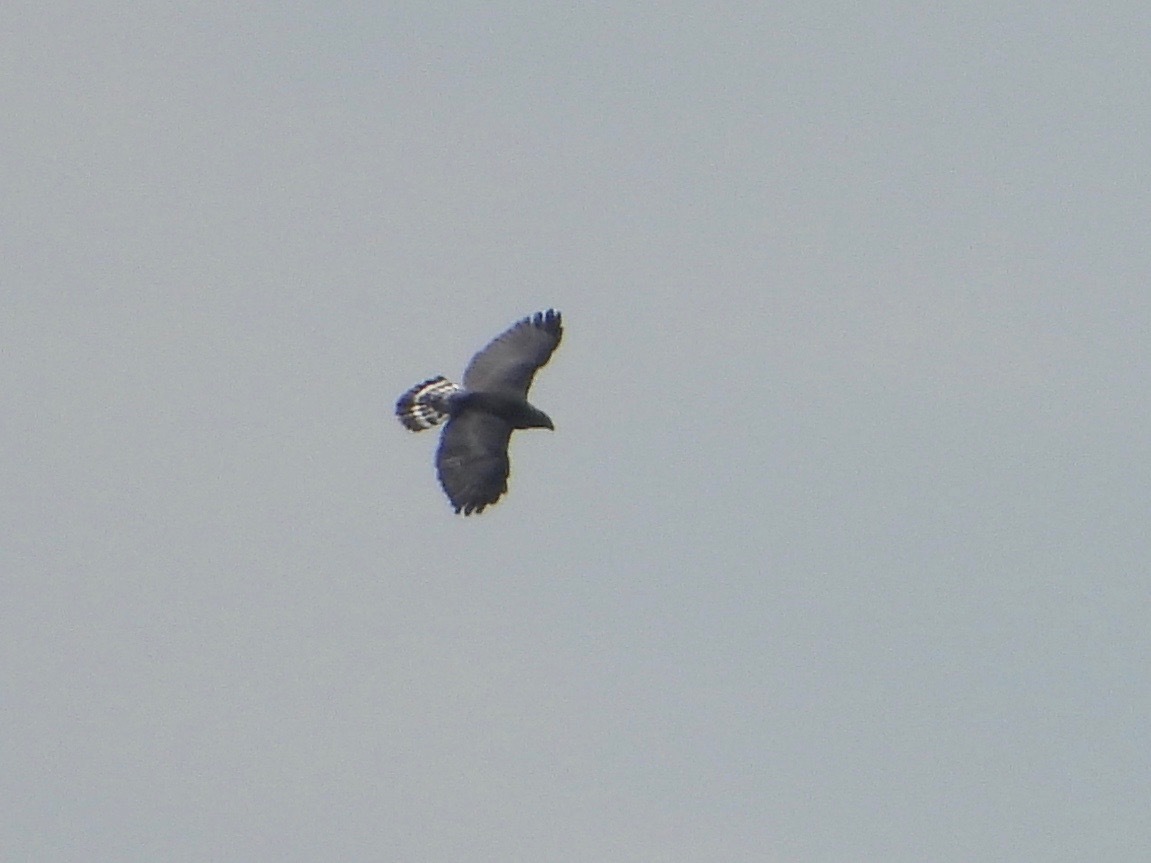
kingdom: Animalia
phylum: Chordata
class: Aves
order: Accipitriformes
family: Accipitridae
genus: Buteo
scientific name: Buteo nitidus
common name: Grey-lined hawk
